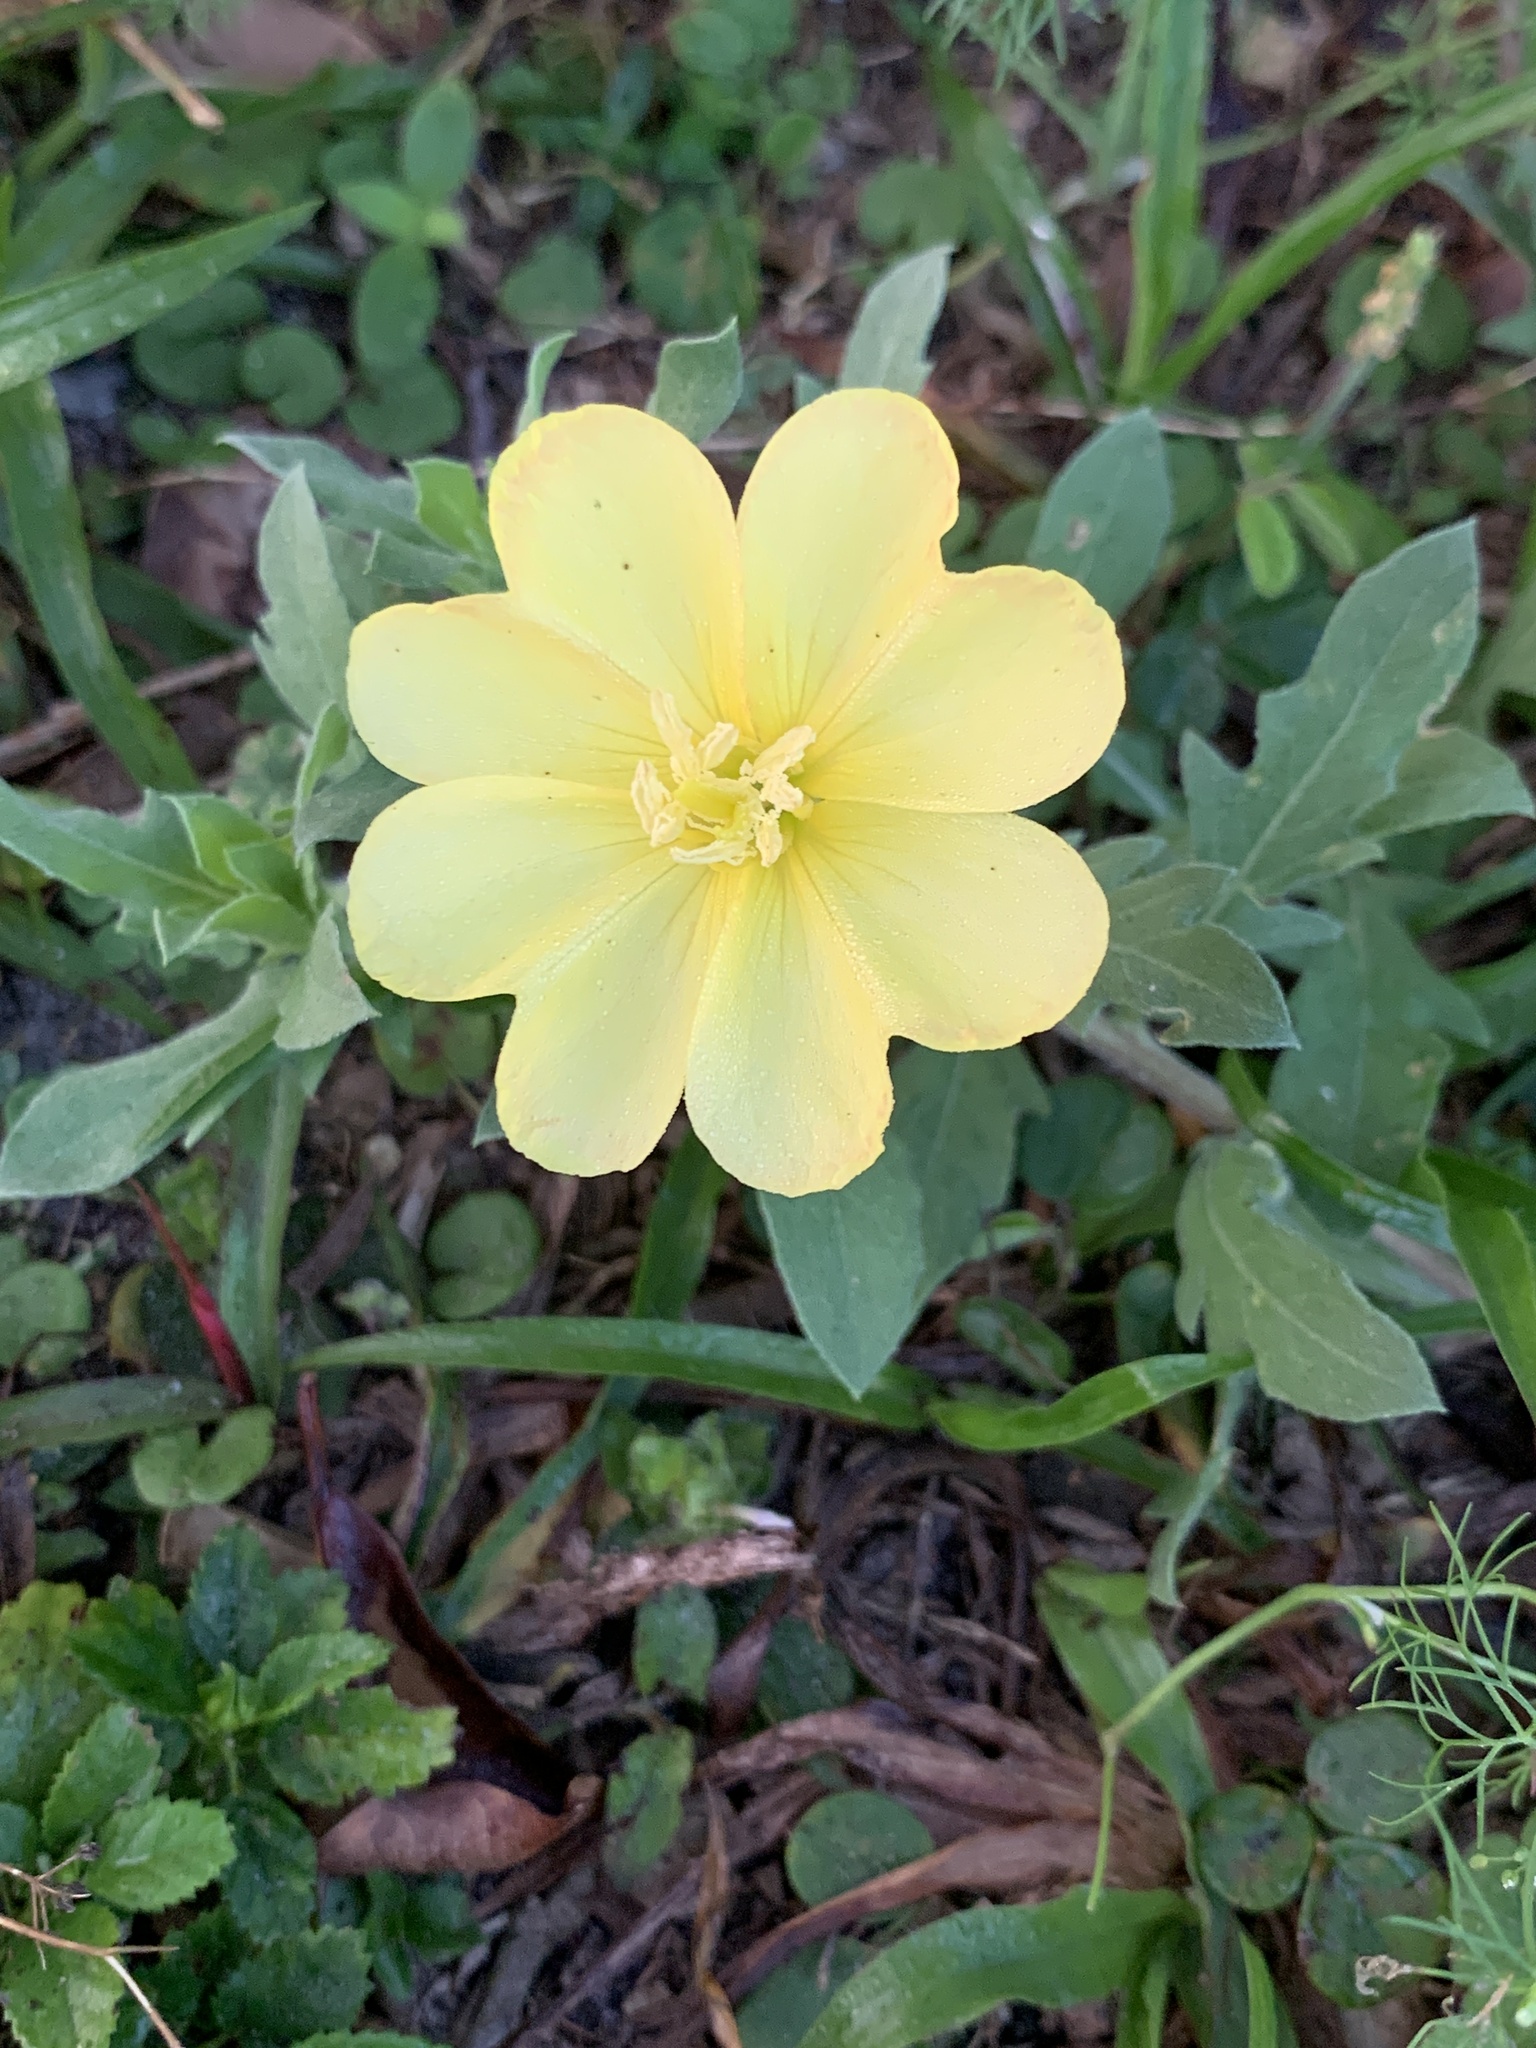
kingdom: Plantae
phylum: Tracheophyta
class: Magnoliopsida
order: Myrtales
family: Onagraceae
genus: Oenothera
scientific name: Oenothera laciniata
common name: Cut-leaved evening-primrose
